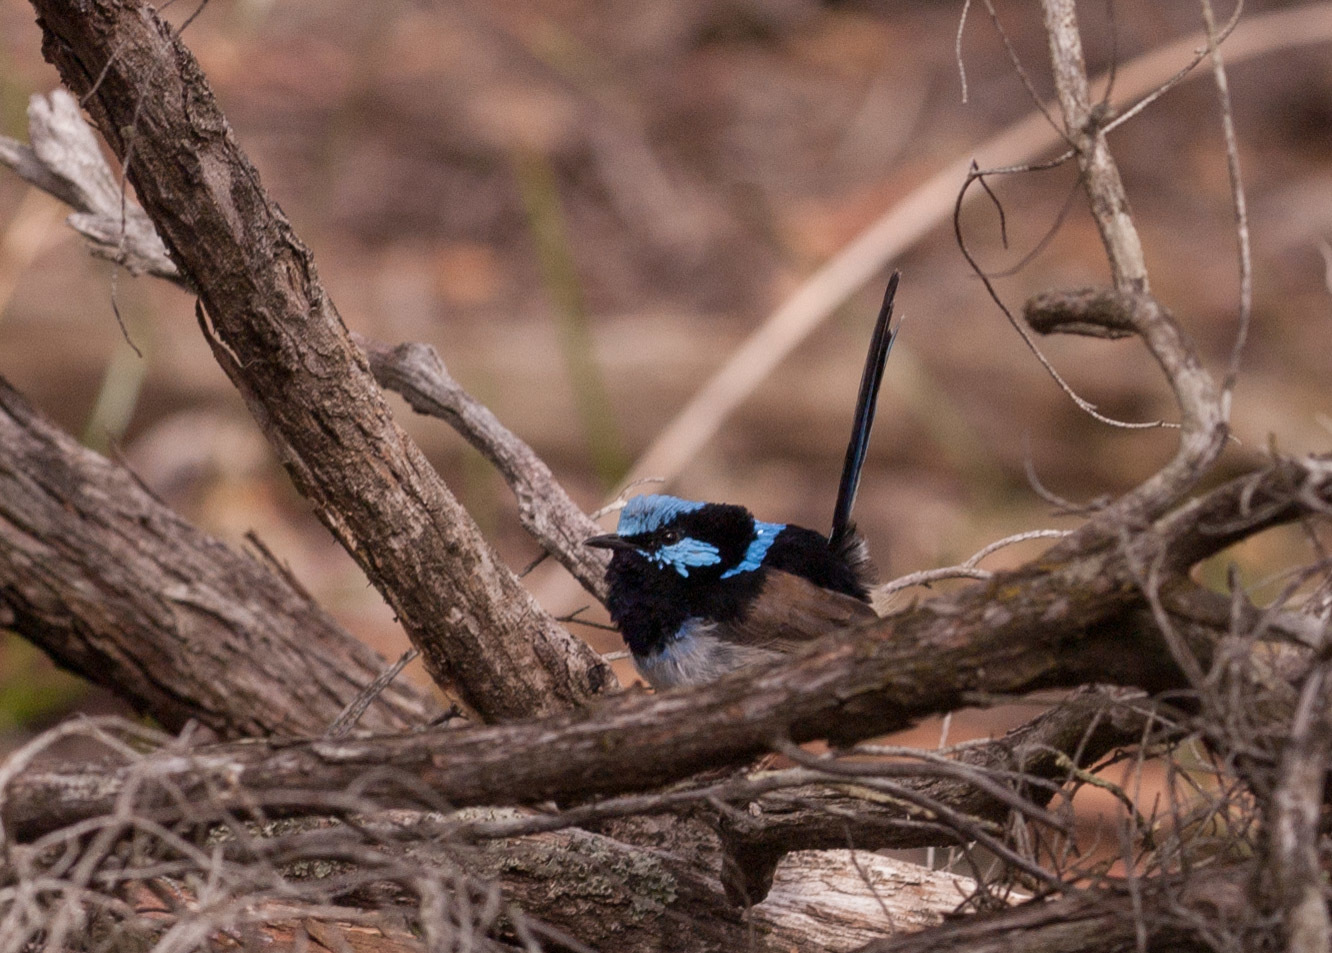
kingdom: Animalia
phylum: Chordata
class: Aves
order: Passeriformes
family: Maluridae
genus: Malurus
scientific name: Malurus cyaneus
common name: Superb fairywren
